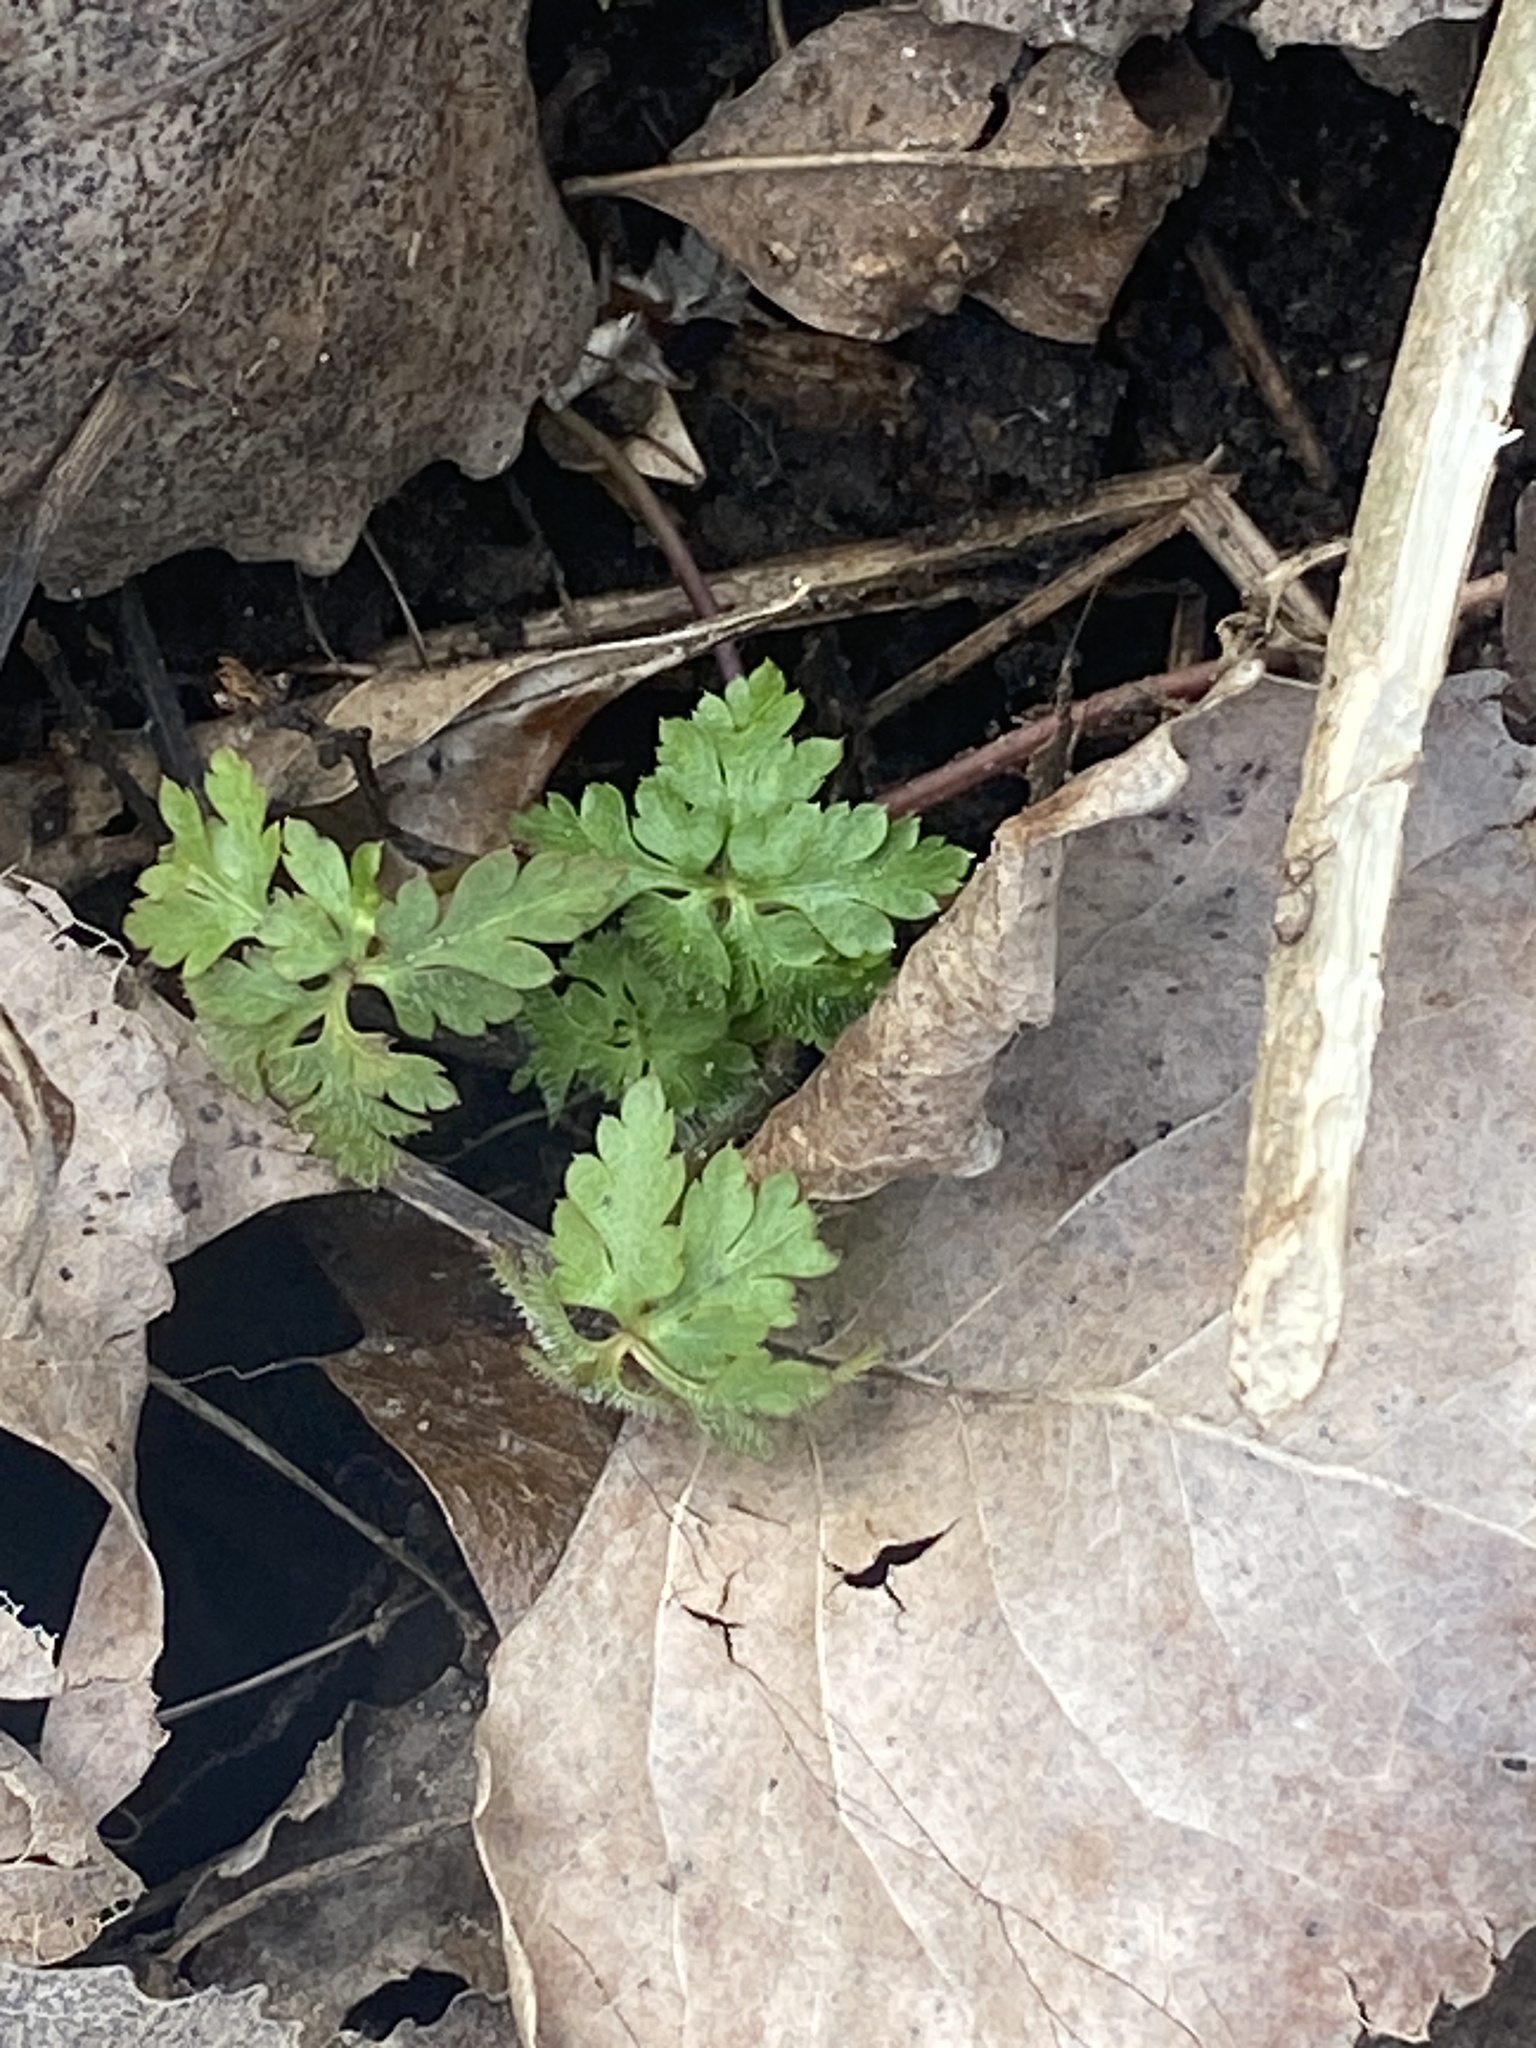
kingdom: Plantae
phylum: Tracheophyta
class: Magnoliopsida
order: Geraniales
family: Geraniaceae
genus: Geranium
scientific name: Geranium robertianum
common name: Herb-robert
